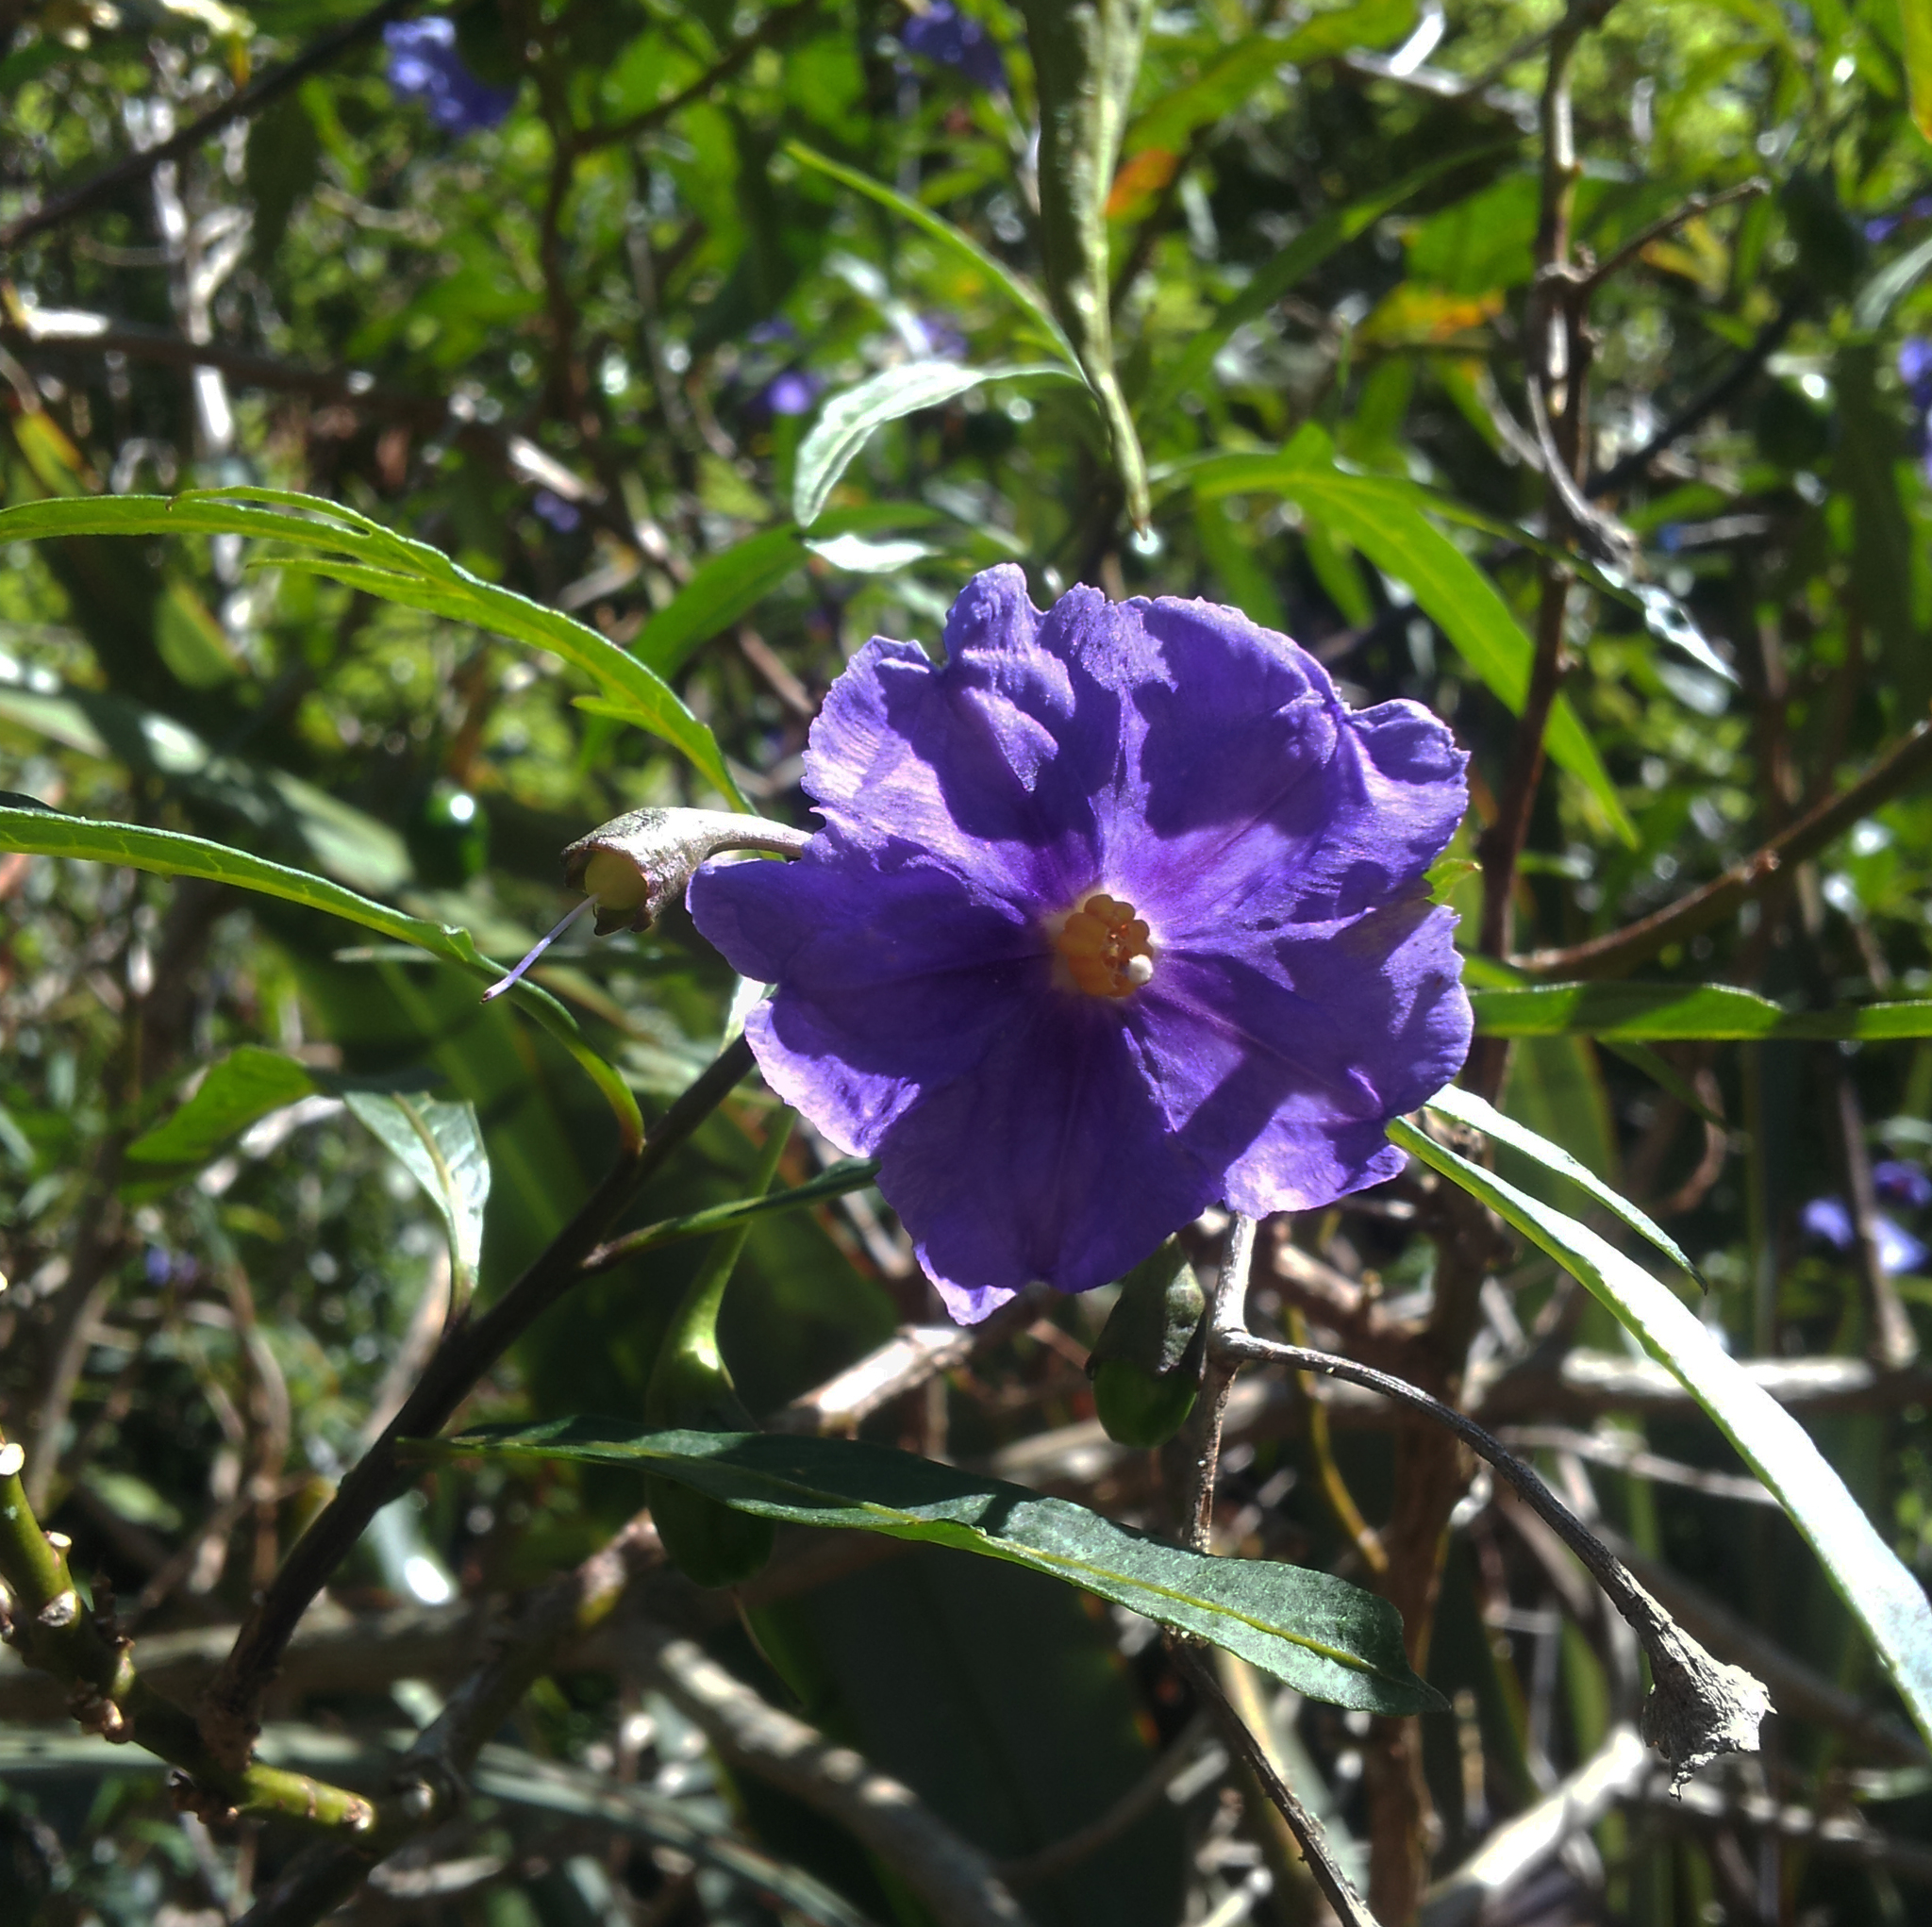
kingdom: Plantae
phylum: Tracheophyta
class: Magnoliopsida
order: Solanales
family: Solanaceae
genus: Solanum
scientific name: Solanum laciniatum
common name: Kangaroo-apple
